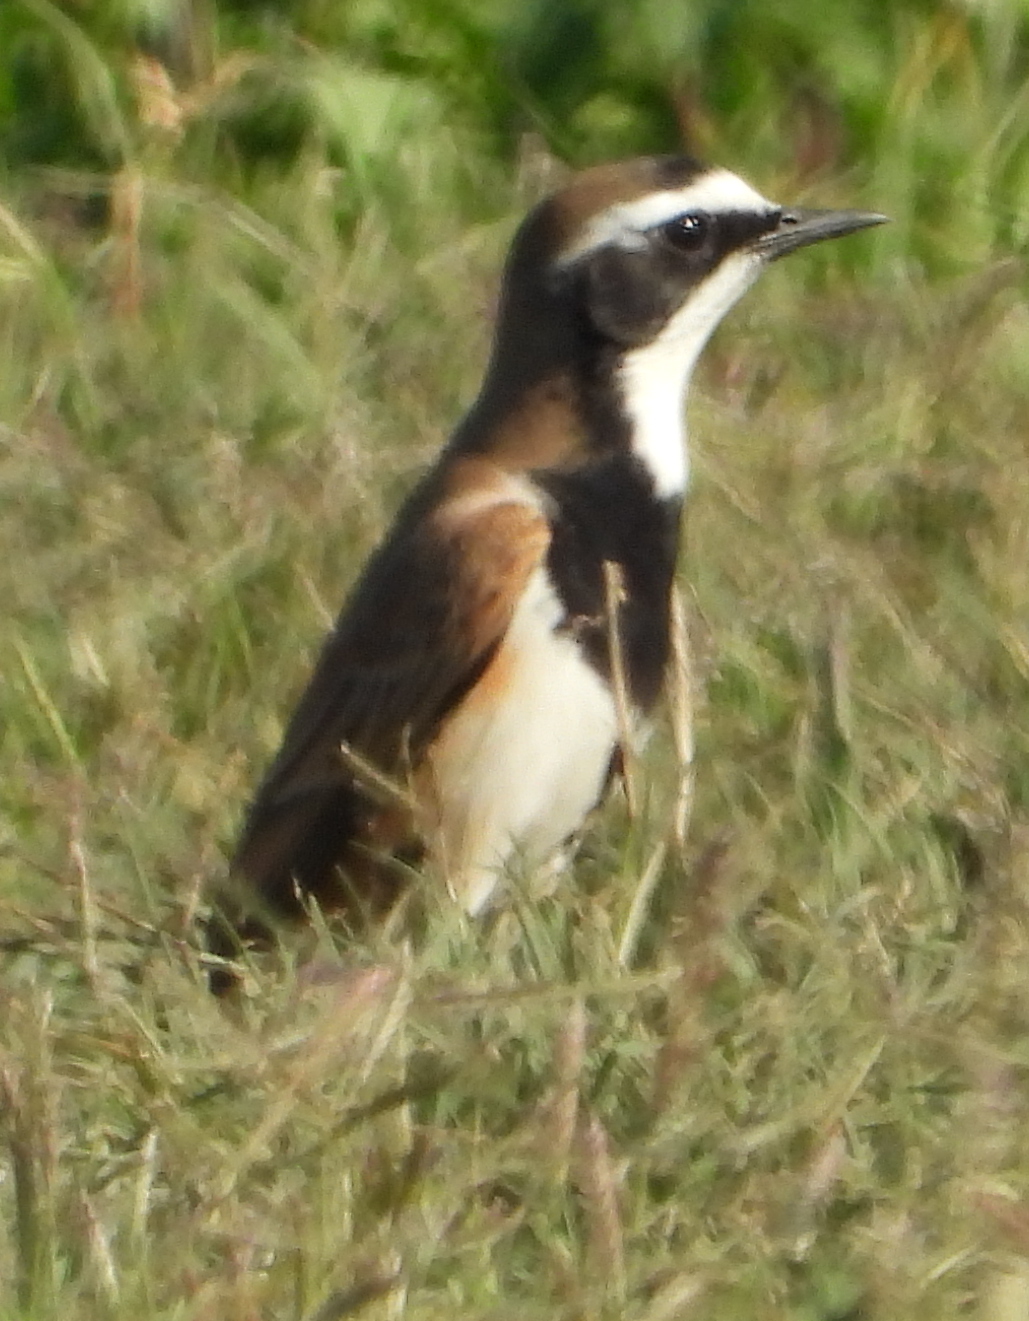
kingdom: Animalia
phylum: Chordata
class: Aves
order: Passeriformes
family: Muscicapidae
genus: Oenanthe
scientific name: Oenanthe pileata
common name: Capped wheatear
